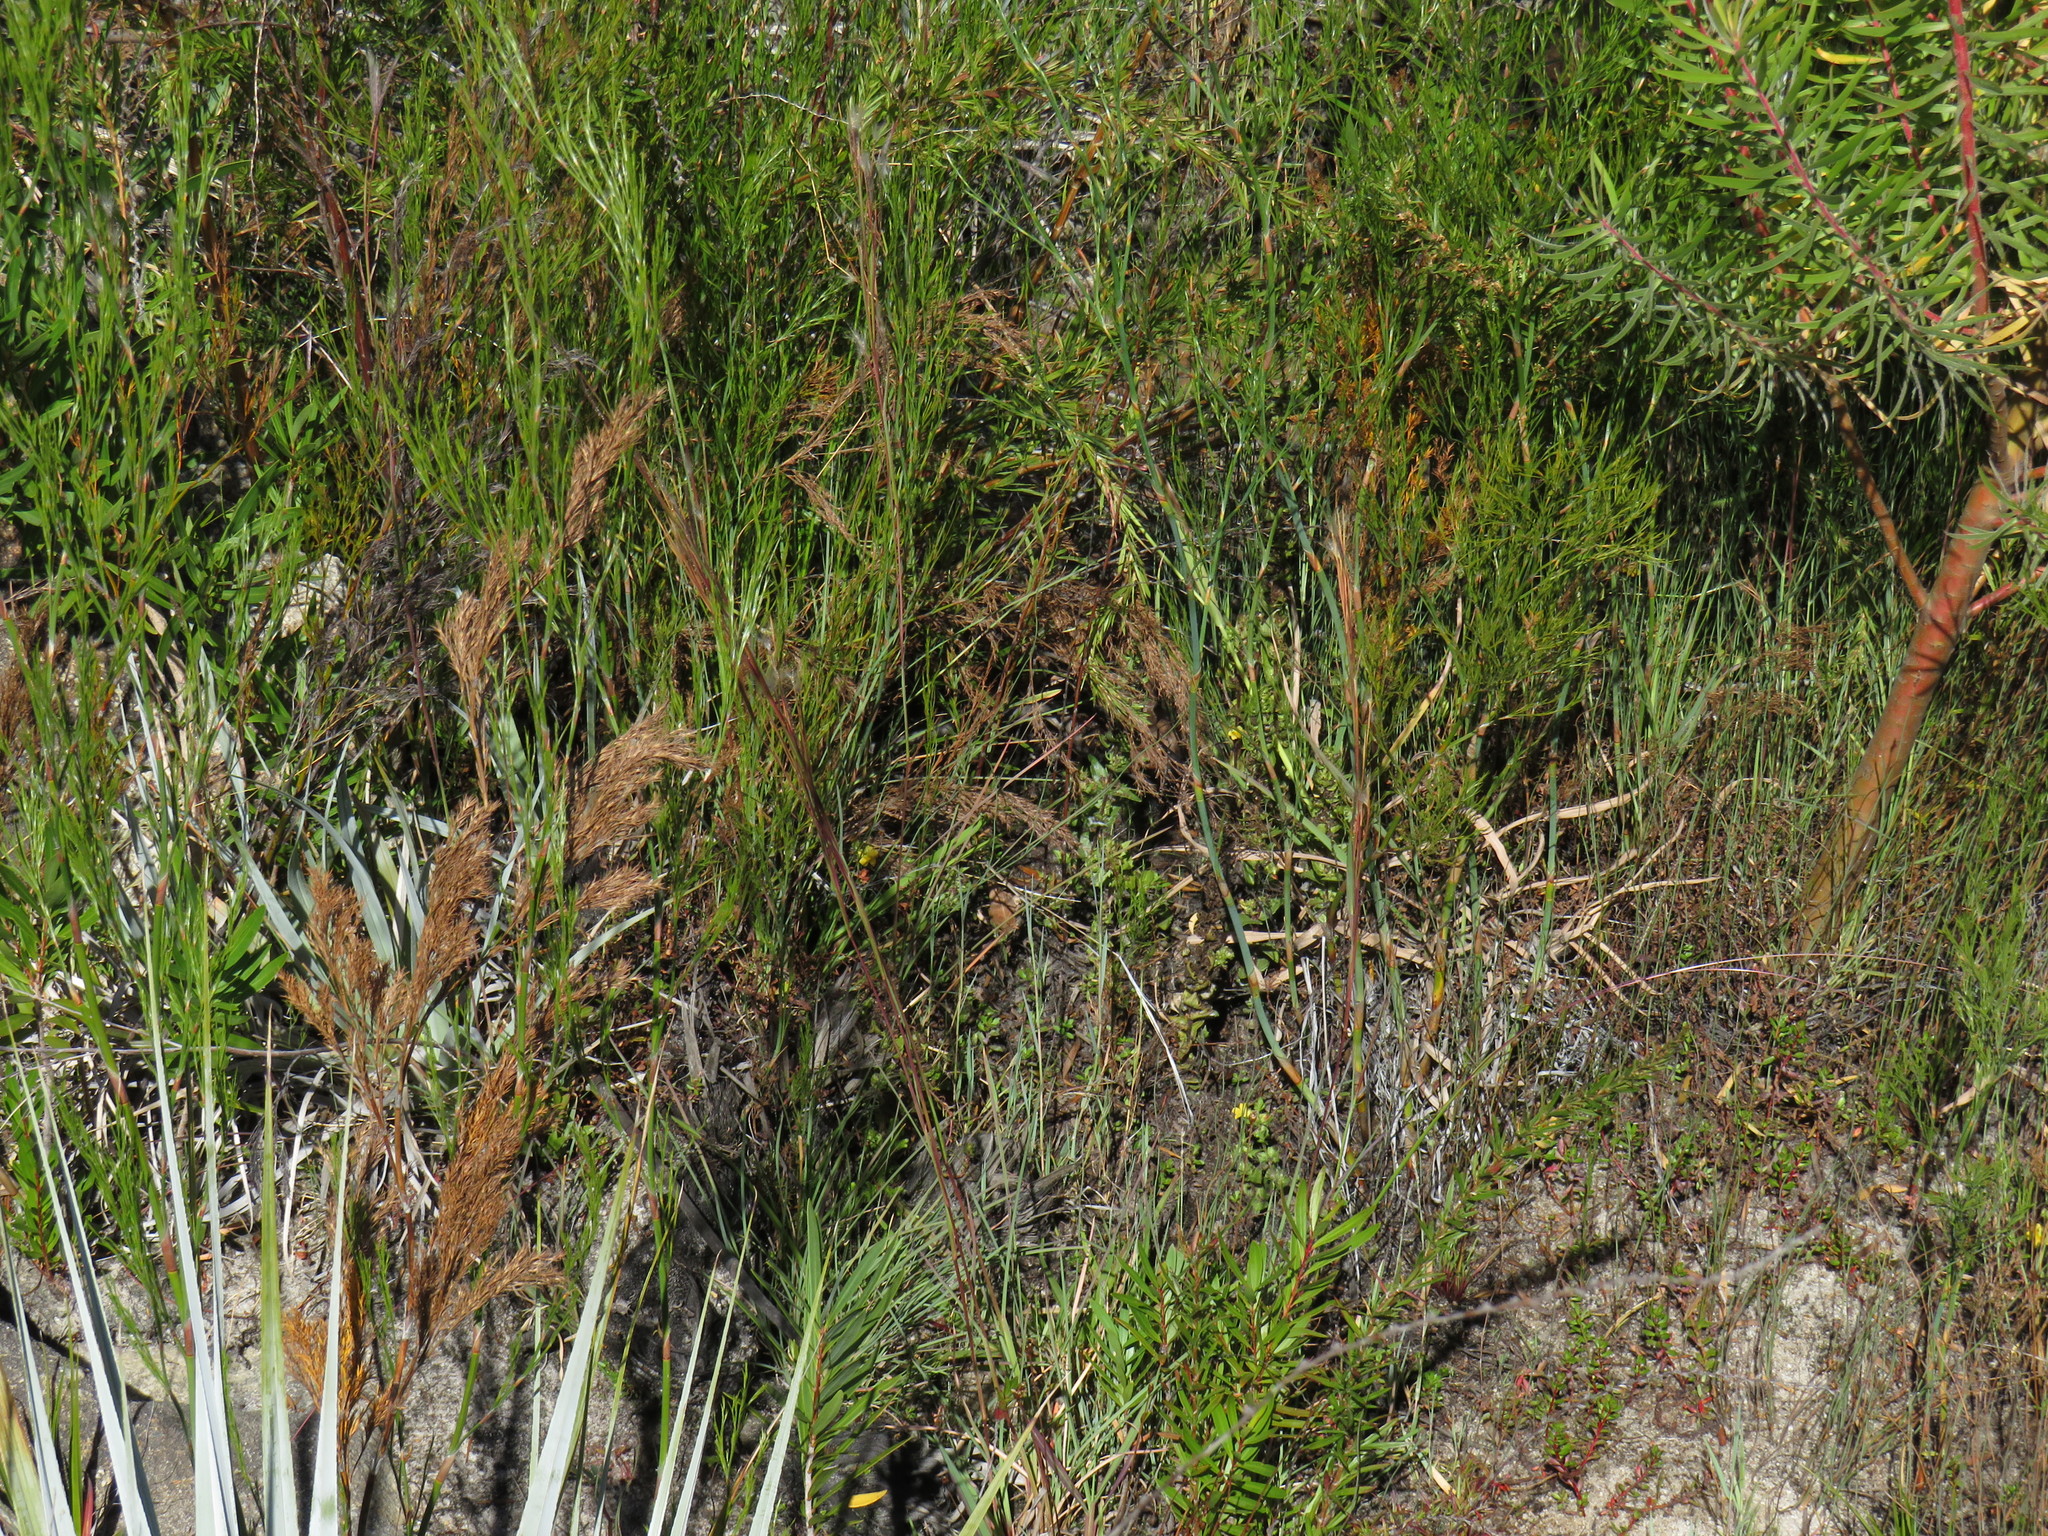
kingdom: Plantae
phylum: Tracheophyta
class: Magnoliopsida
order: Lamiales
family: Orobanchaceae
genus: Alectra
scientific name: Alectra sessiliflora
